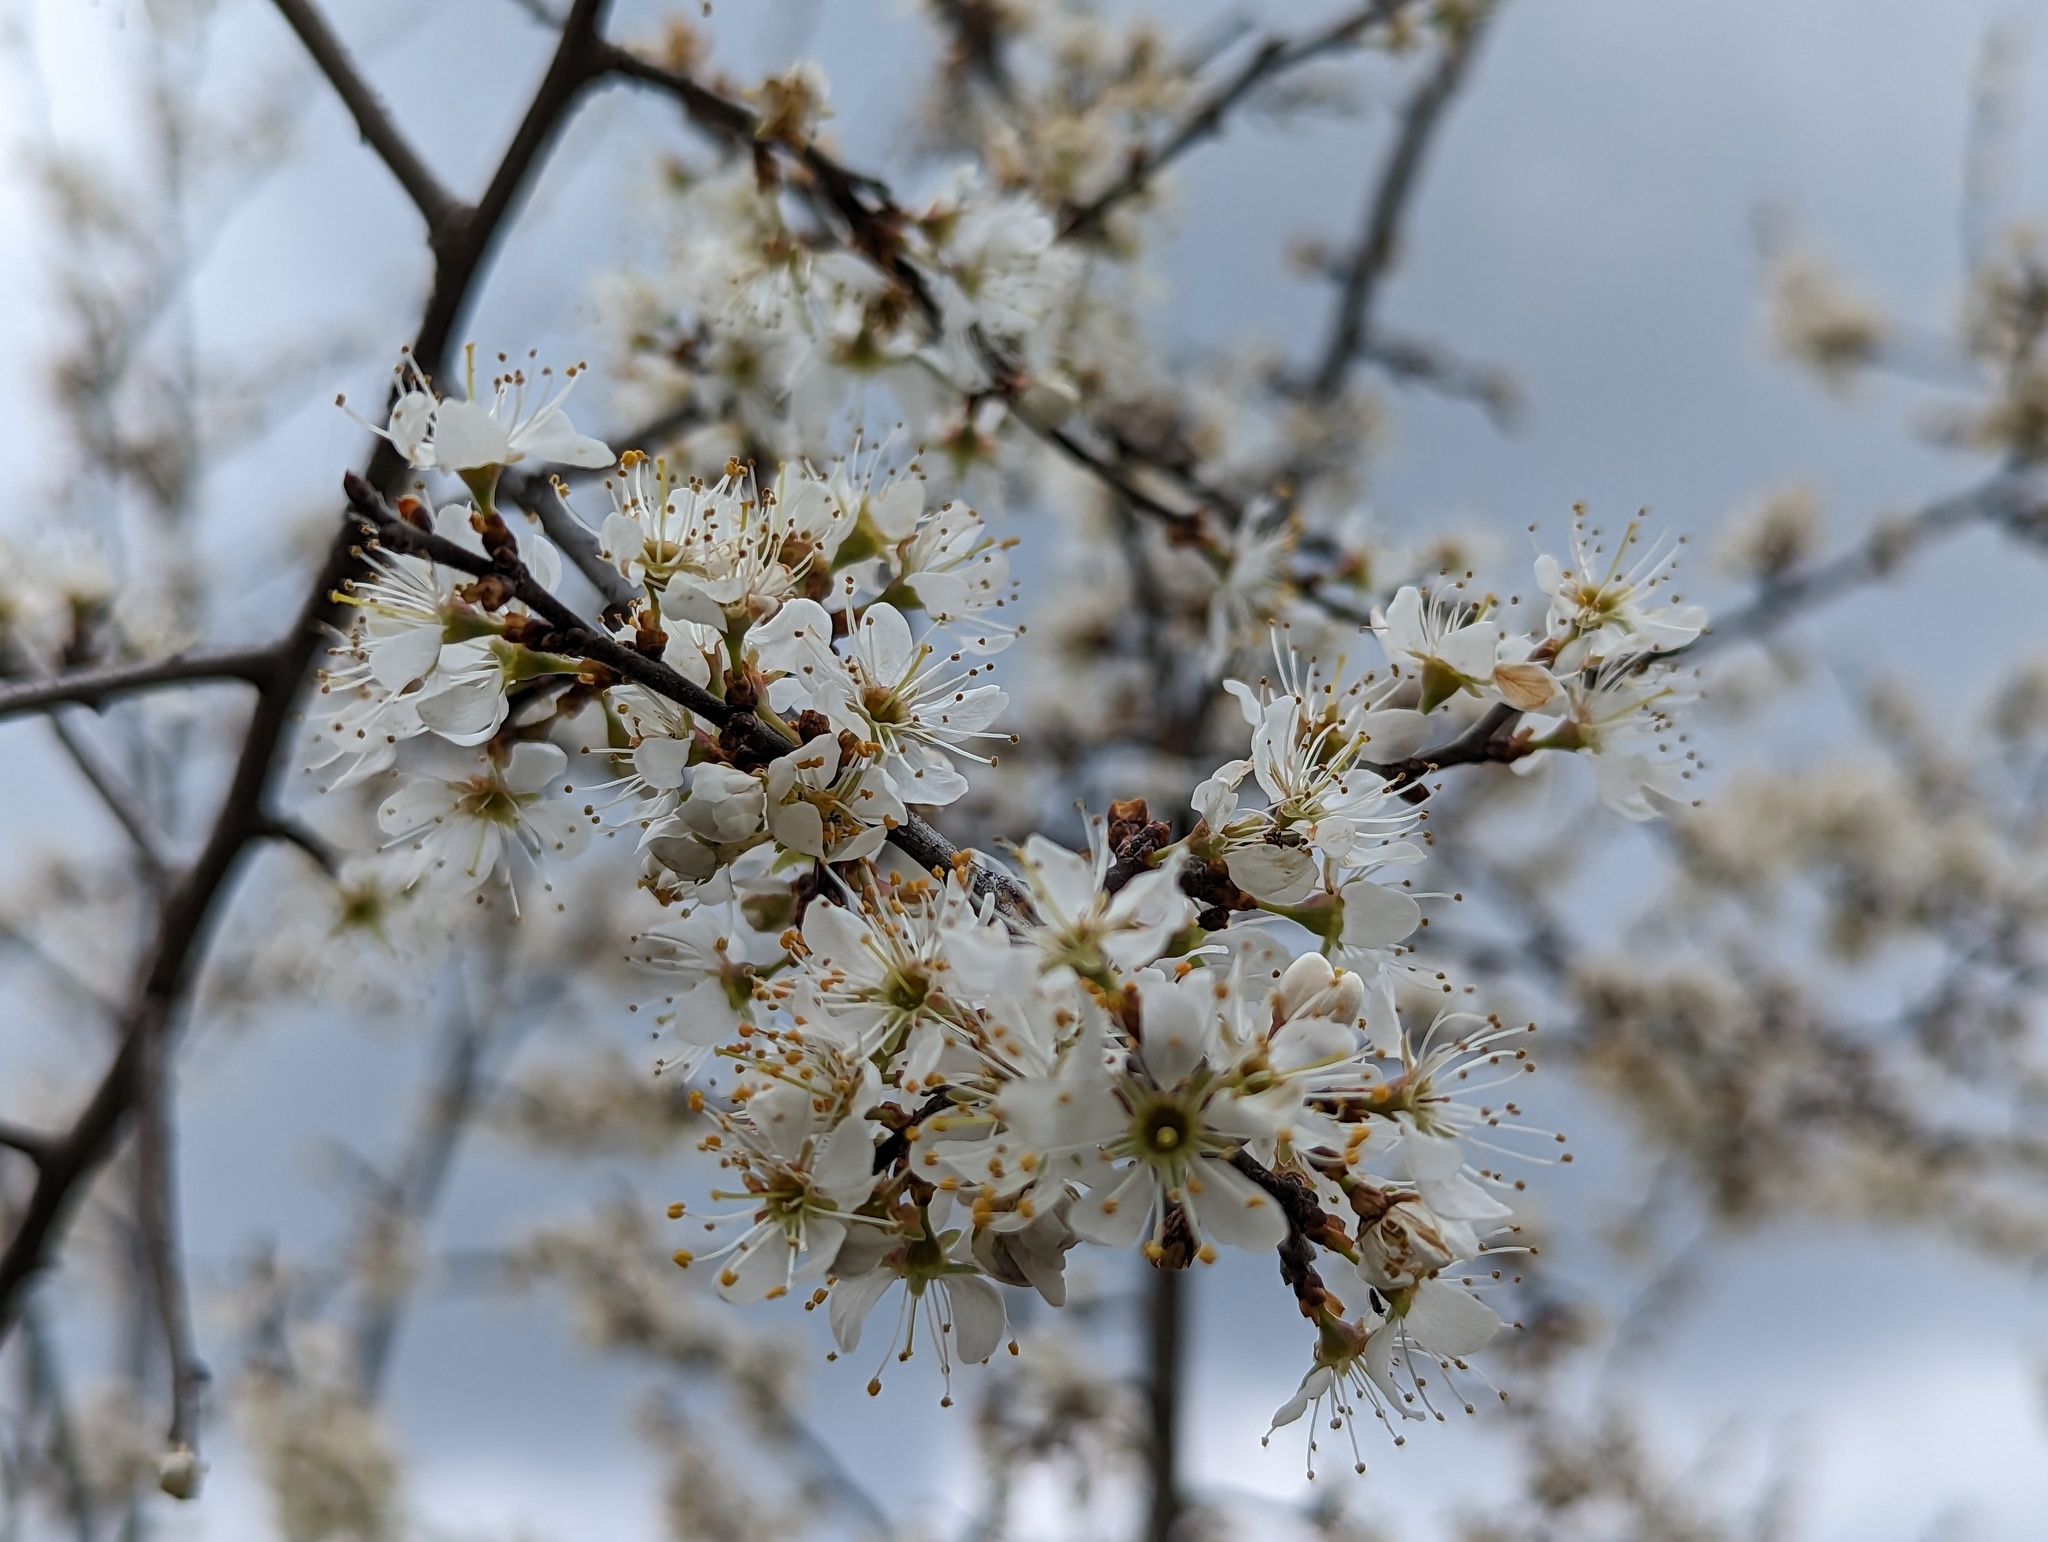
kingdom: Plantae
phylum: Tracheophyta
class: Magnoliopsida
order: Rosales
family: Rosaceae
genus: Prunus
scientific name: Prunus spinosa
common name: Blackthorn
